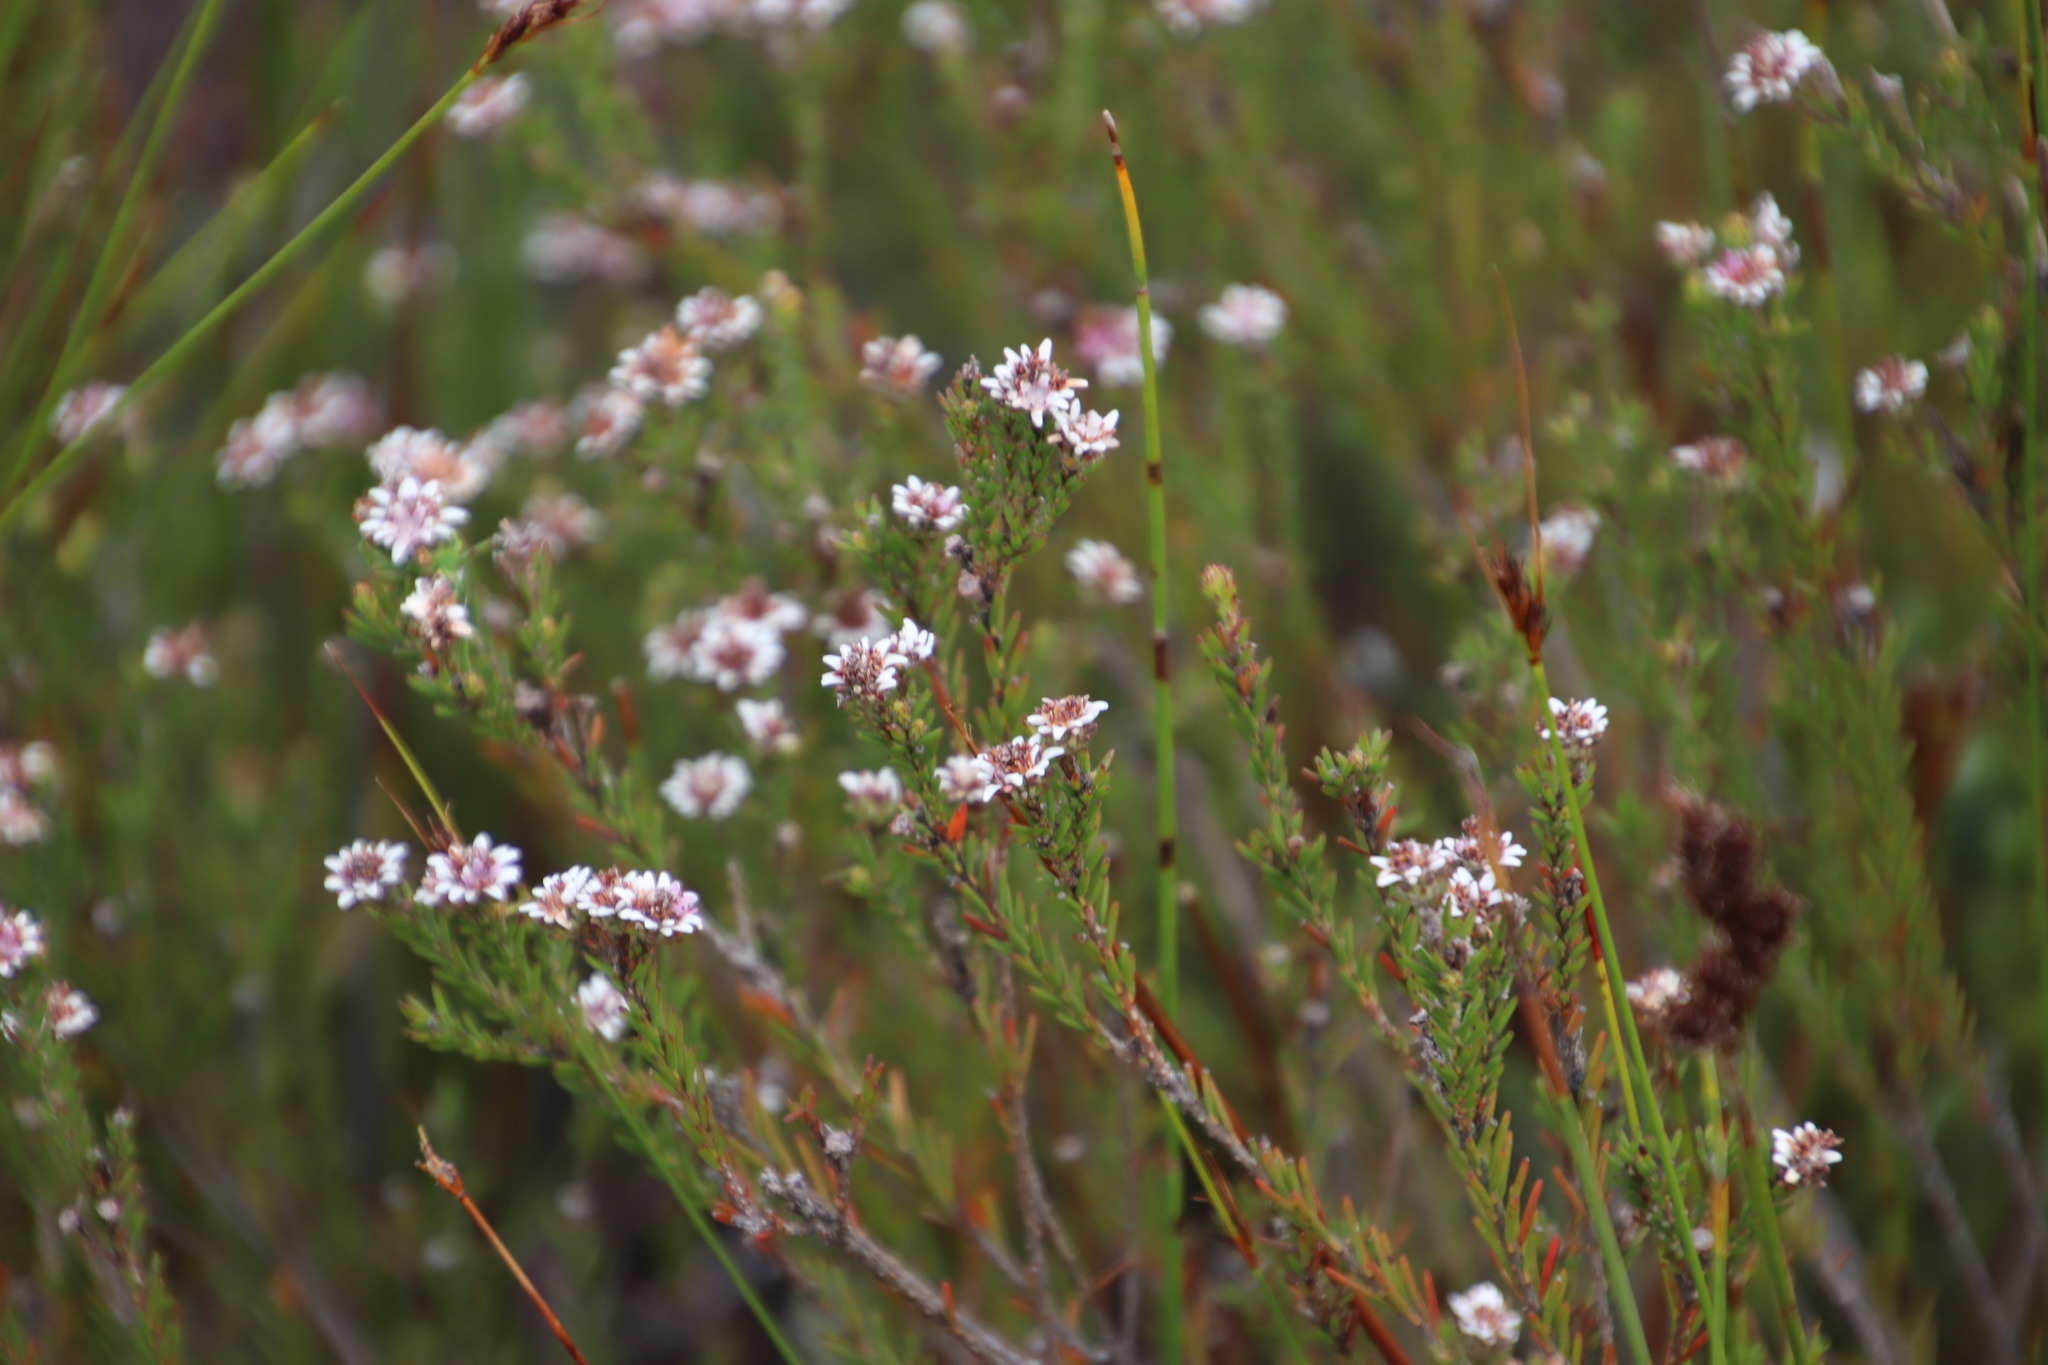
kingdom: Plantae
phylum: Tracheophyta
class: Magnoliopsida
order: Bruniales
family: Bruniaceae
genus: Staavia
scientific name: Staavia radiata
